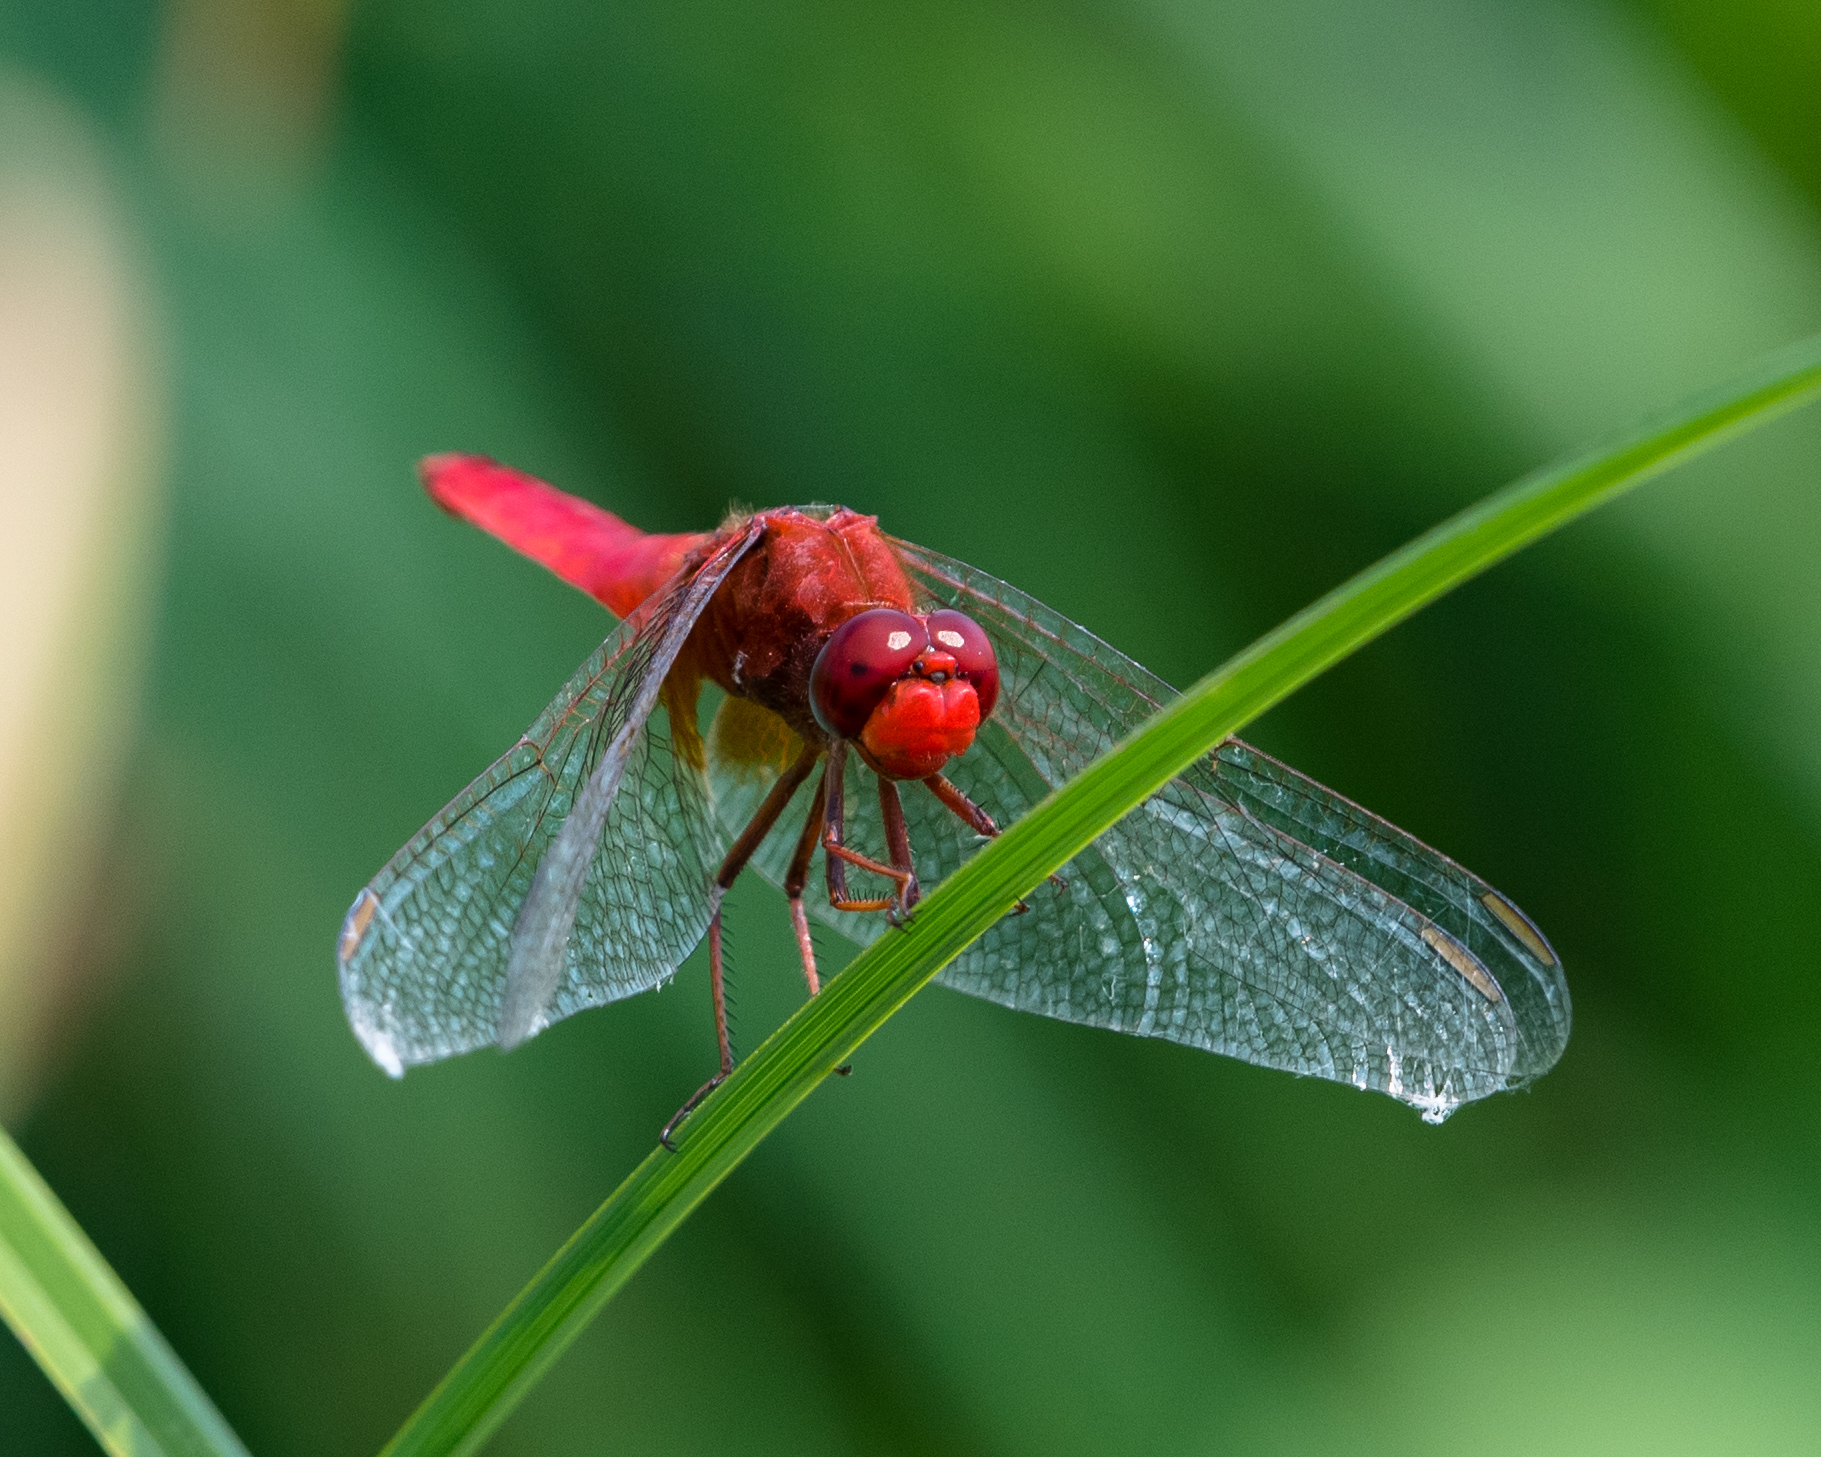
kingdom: Animalia
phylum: Arthropoda
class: Insecta
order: Odonata
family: Libellulidae
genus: Crocothemis
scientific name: Crocothemis erythraea
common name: Scarlet dragonfly
